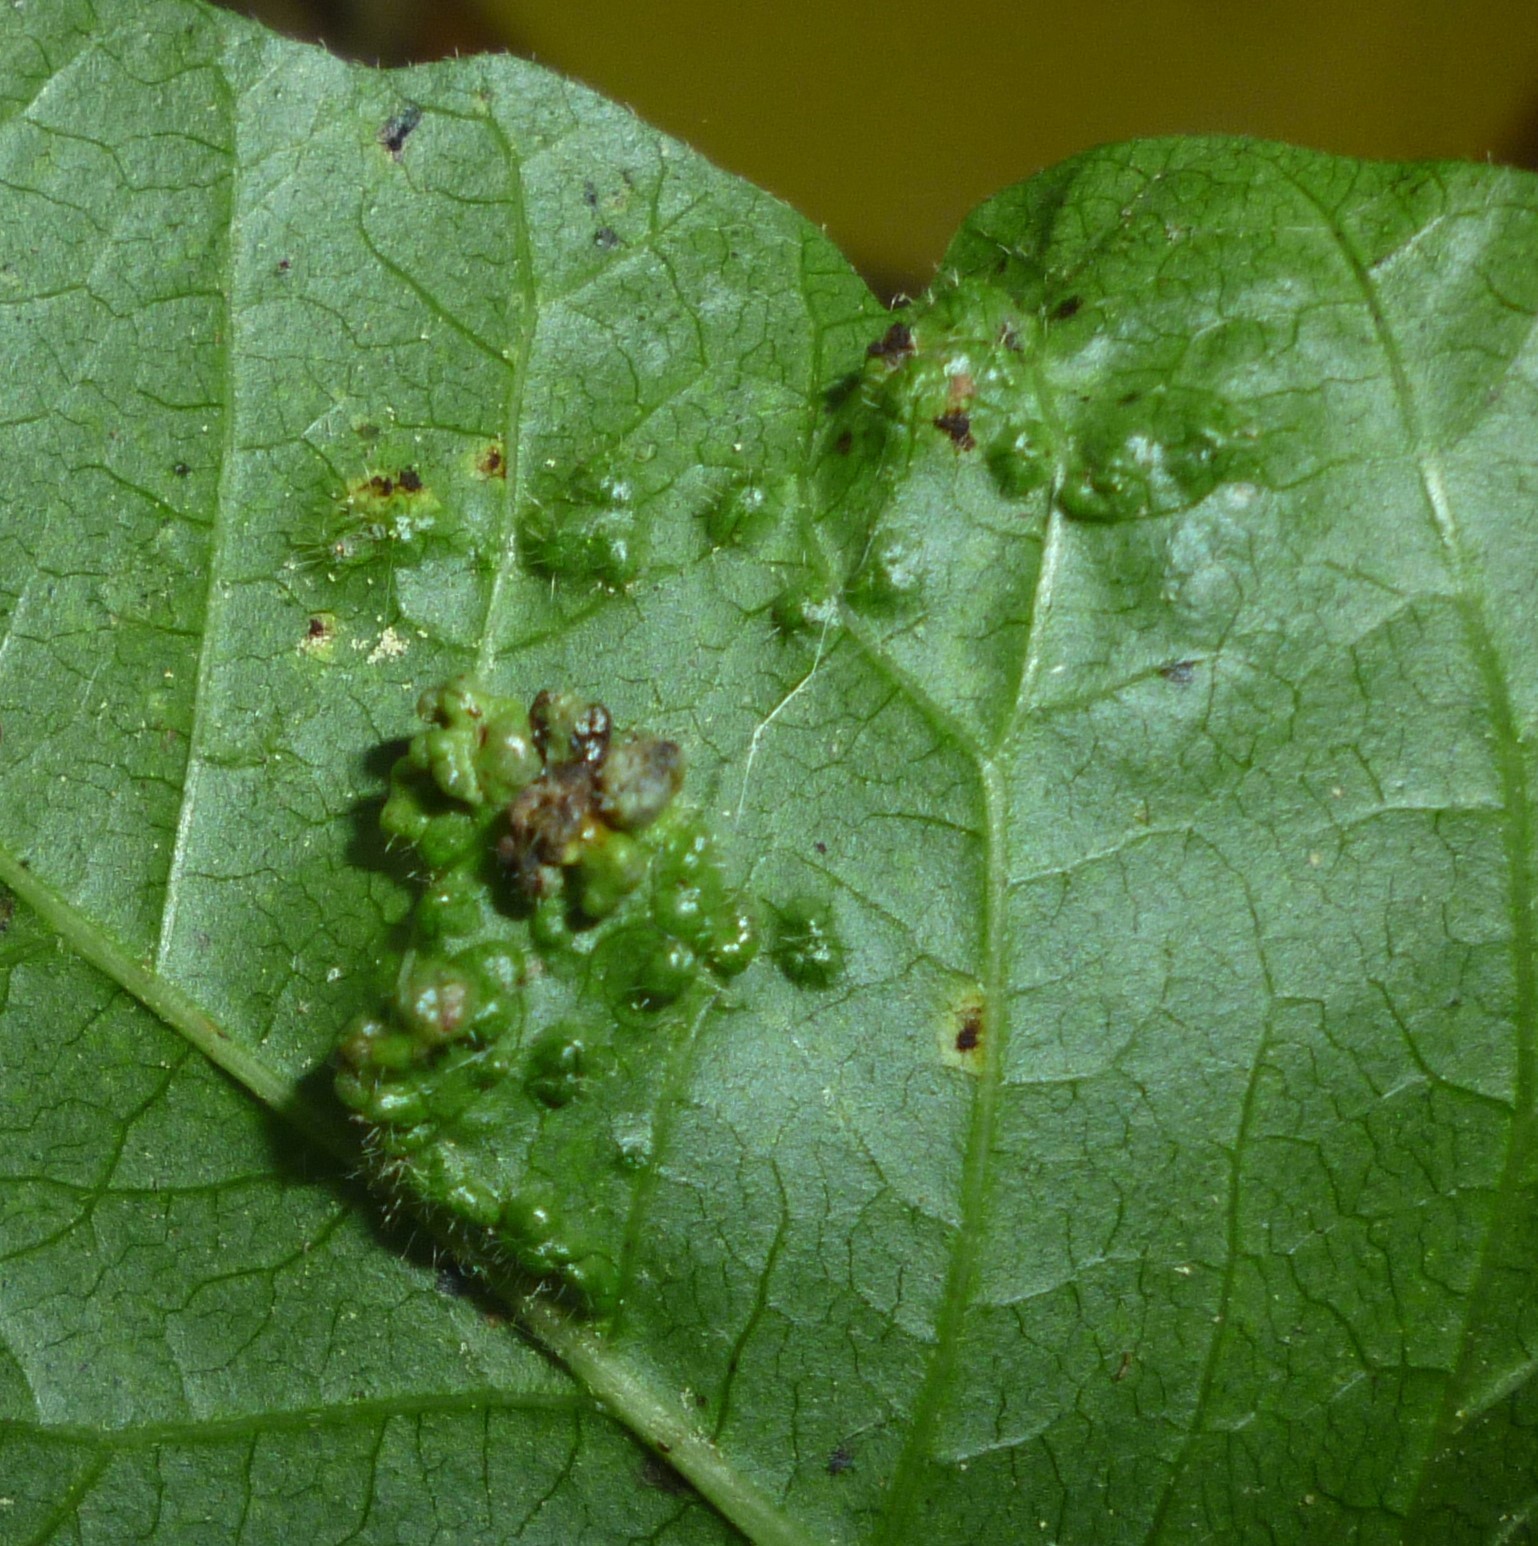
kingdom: Animalia
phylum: Arthropoda
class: Arachnida
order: Trombidiformes
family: Eriophyidae
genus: Aculops
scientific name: Aculops
